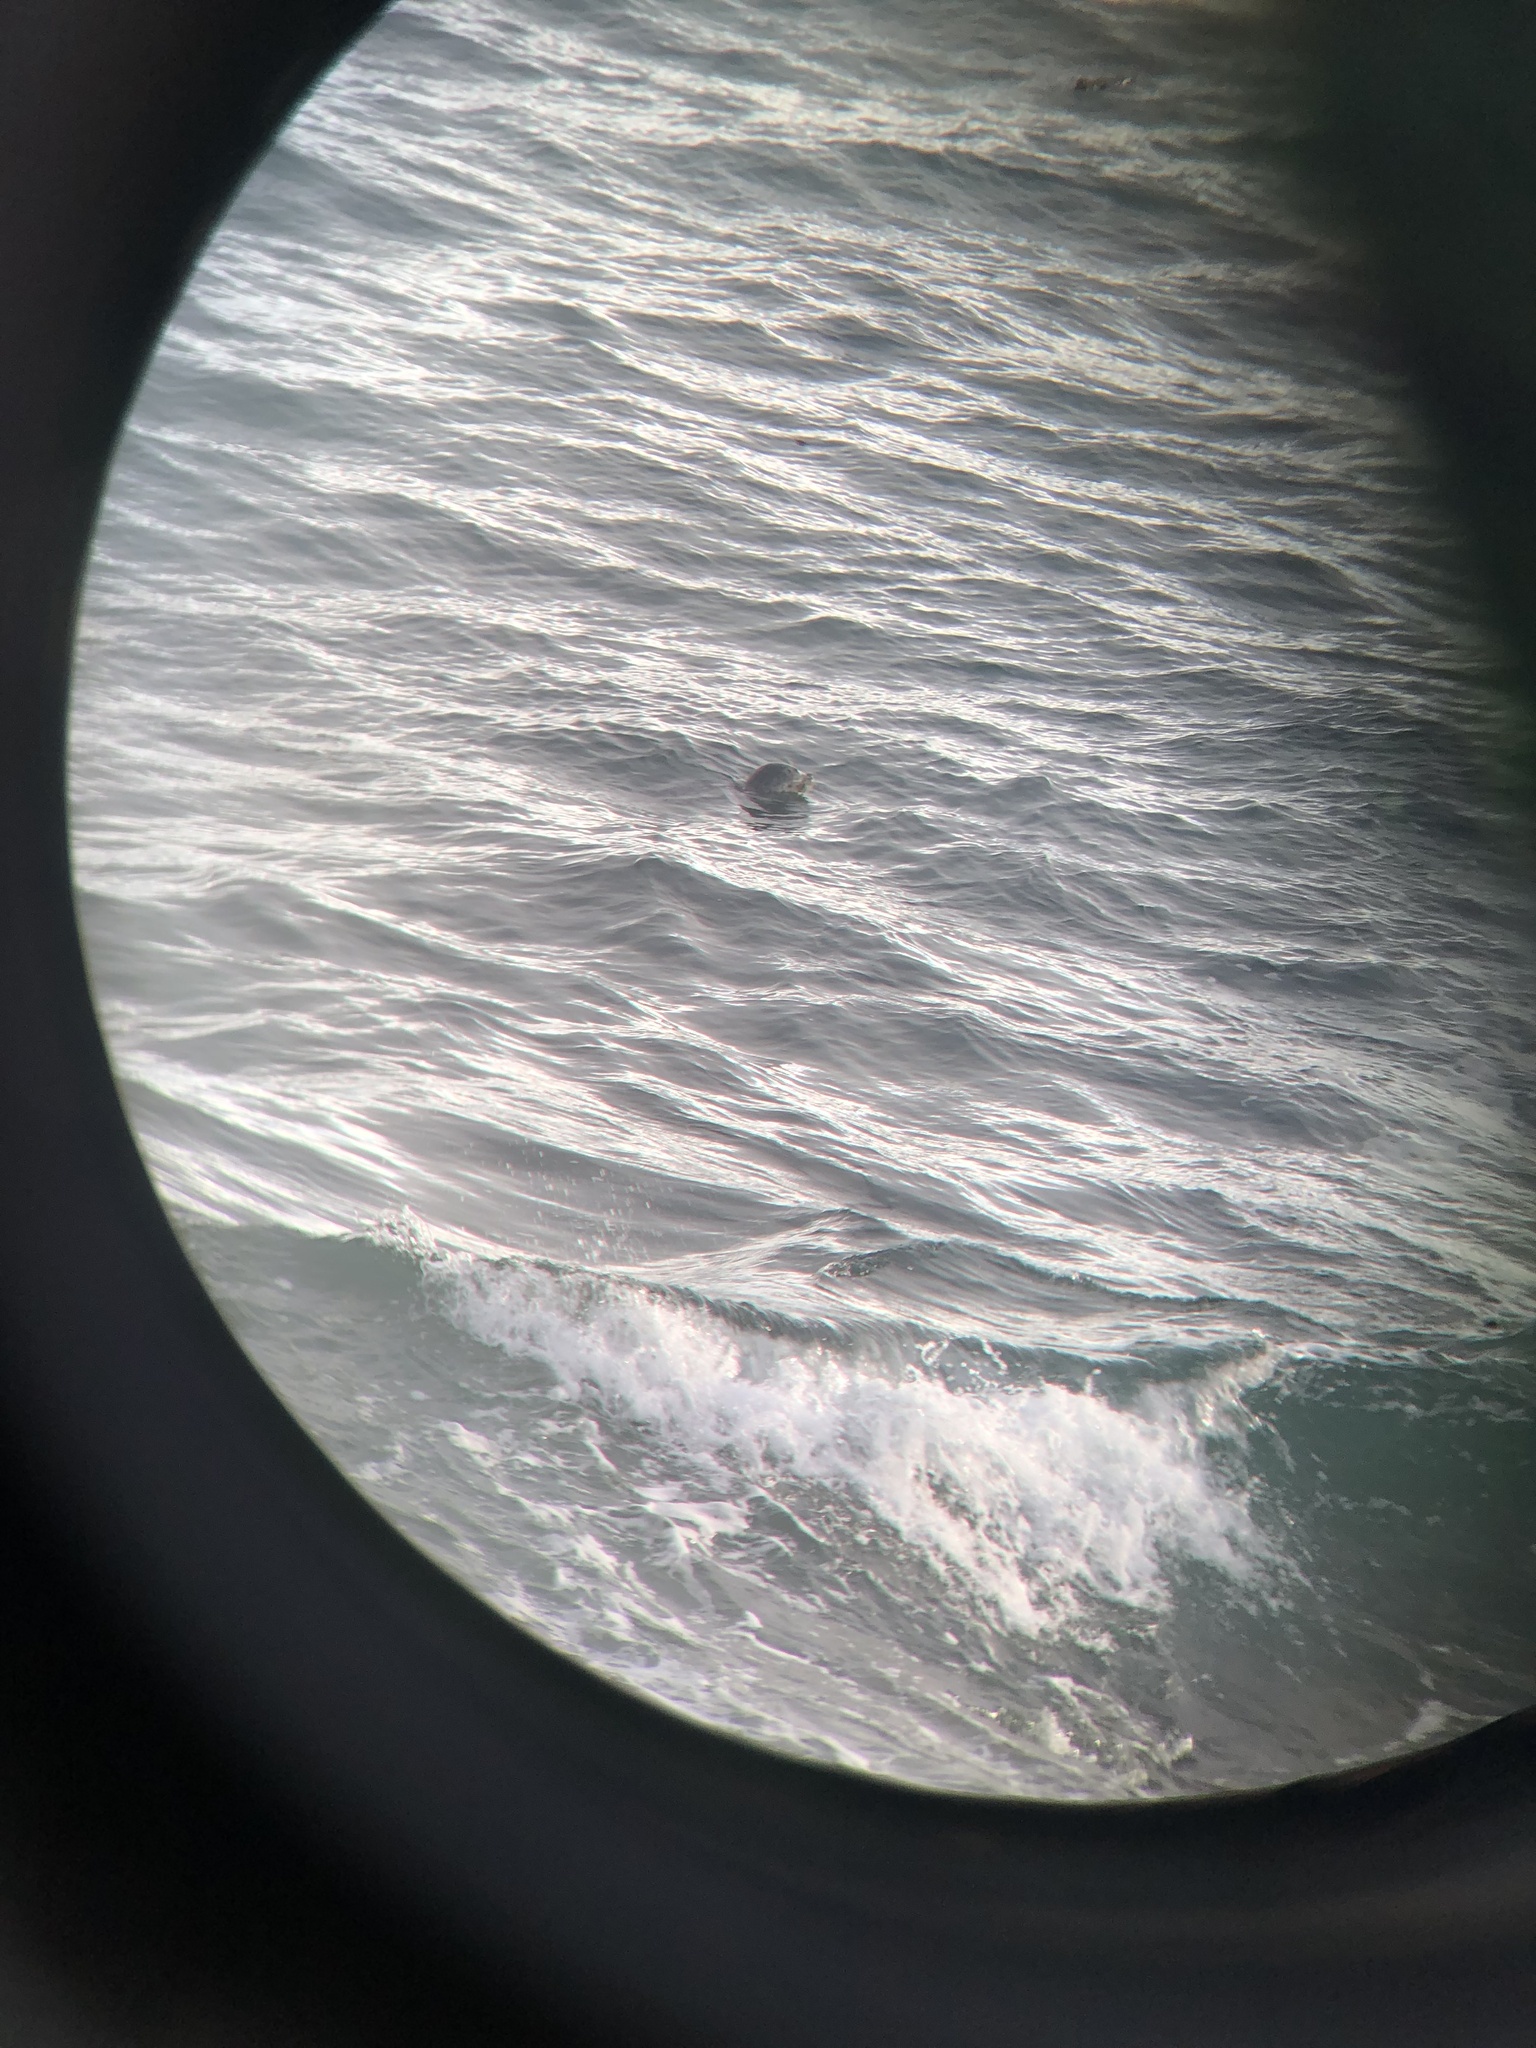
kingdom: Animalia
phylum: Chordata
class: Mammalia
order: Carnivora
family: Phocidae
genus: Phoca
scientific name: Phoca vitulina
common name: Harbor seal
